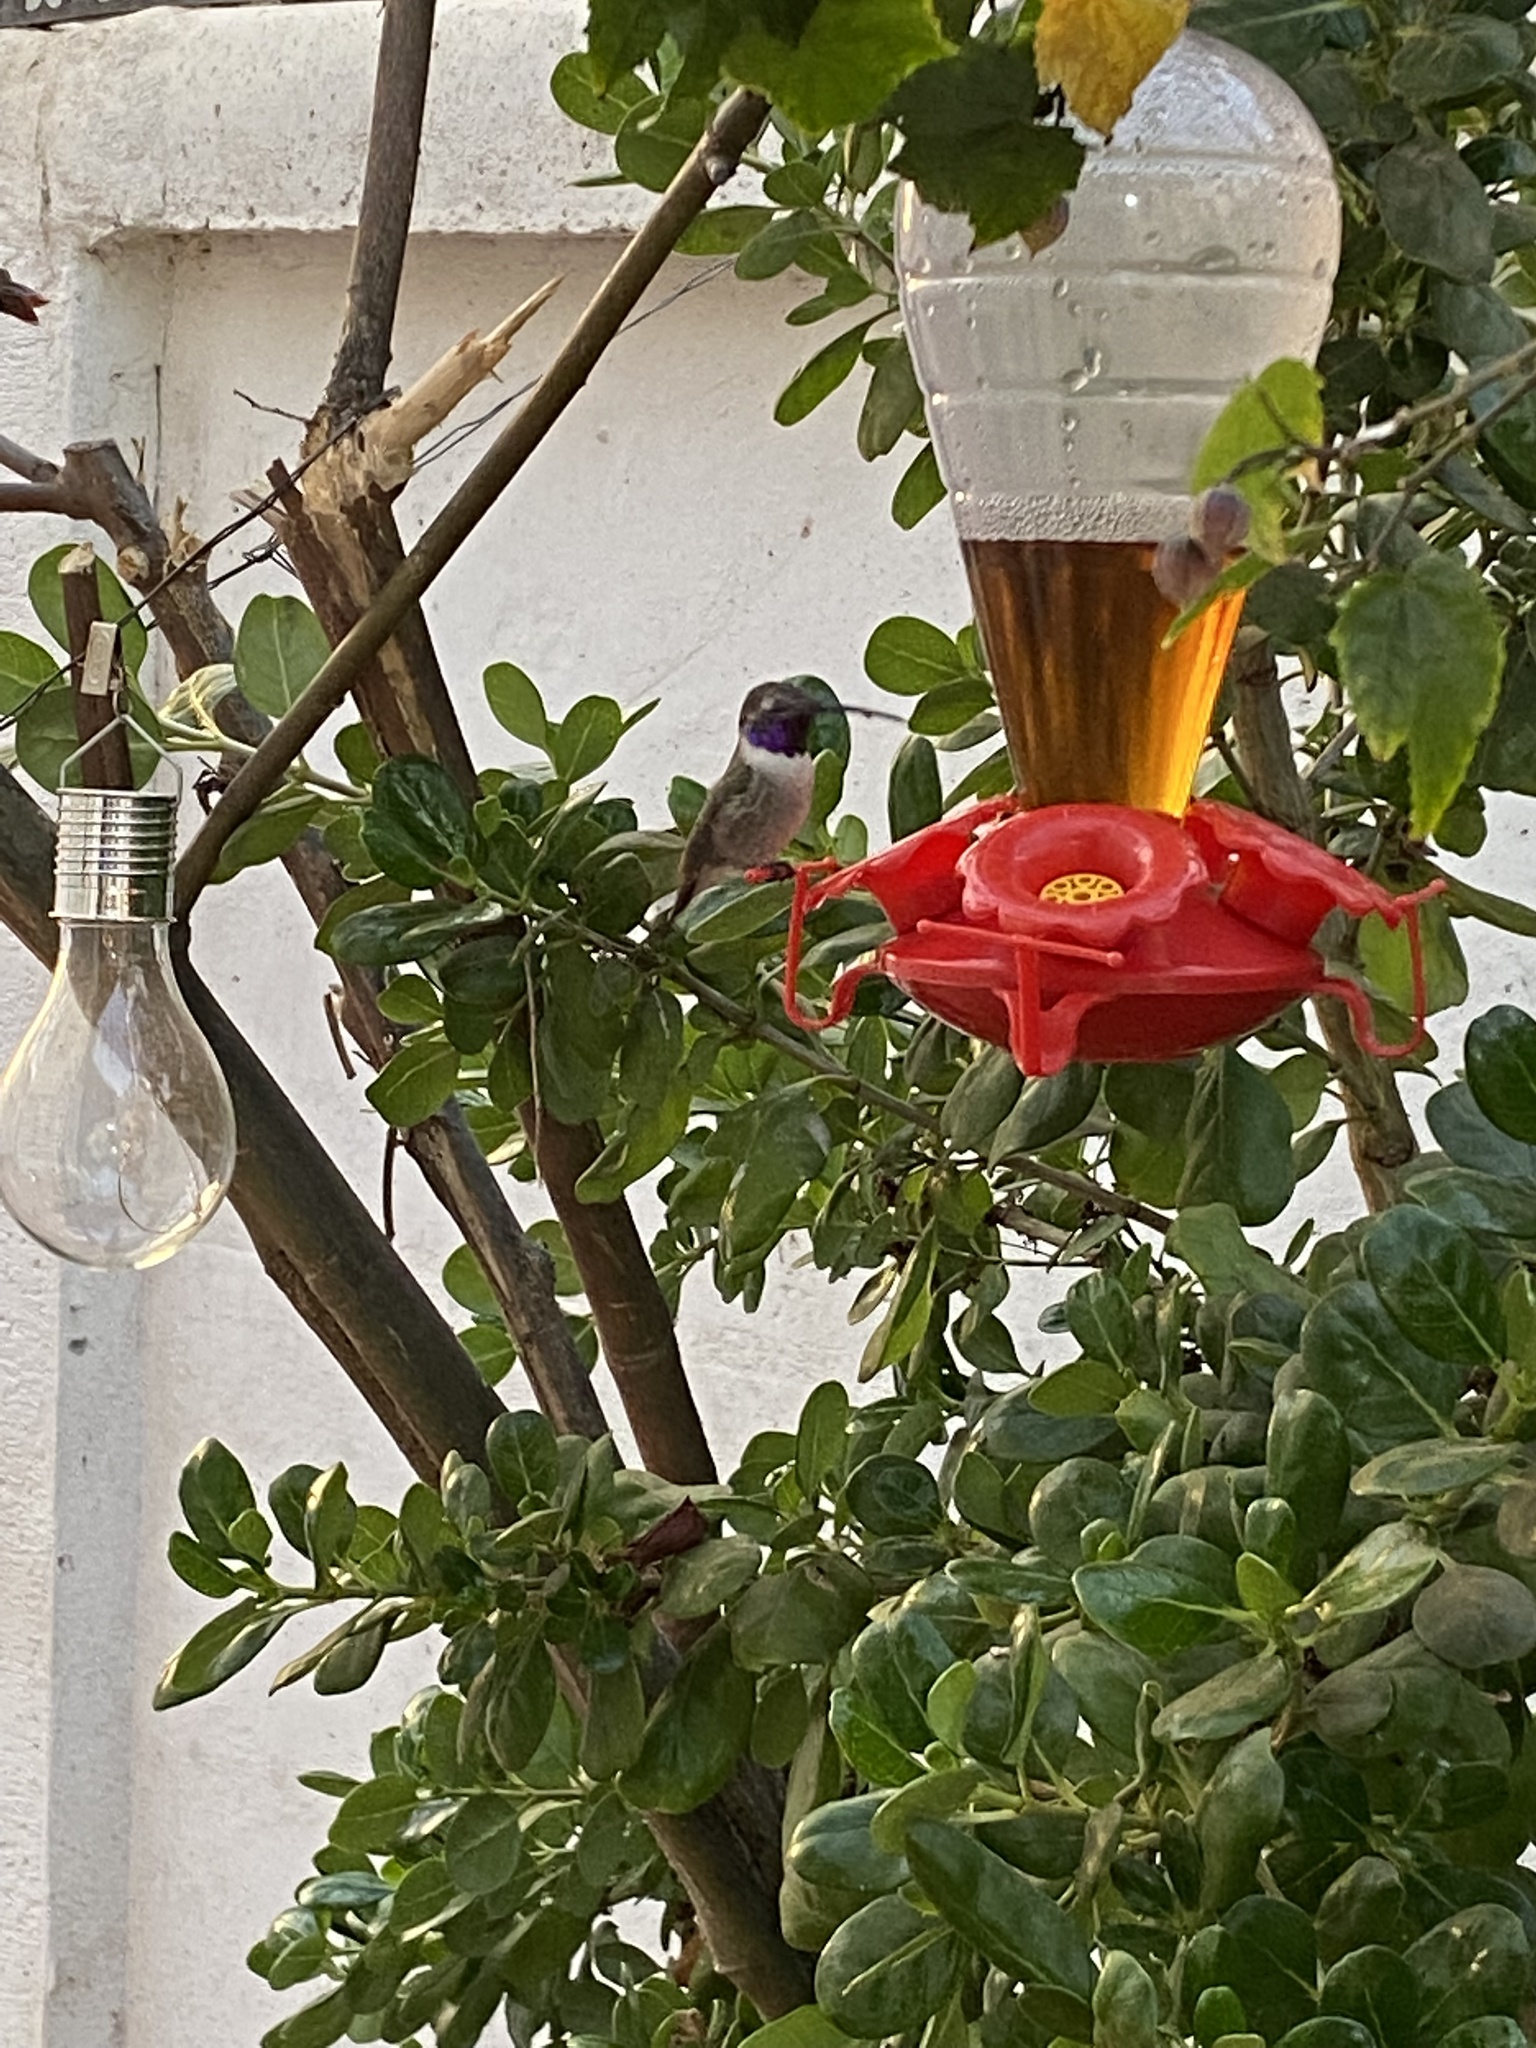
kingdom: Animalia
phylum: Chordata
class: Aves
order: Apodiformes
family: Trochilidae
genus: Rhodopis
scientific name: Rhodopis vesper
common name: Oasis hummingbird
